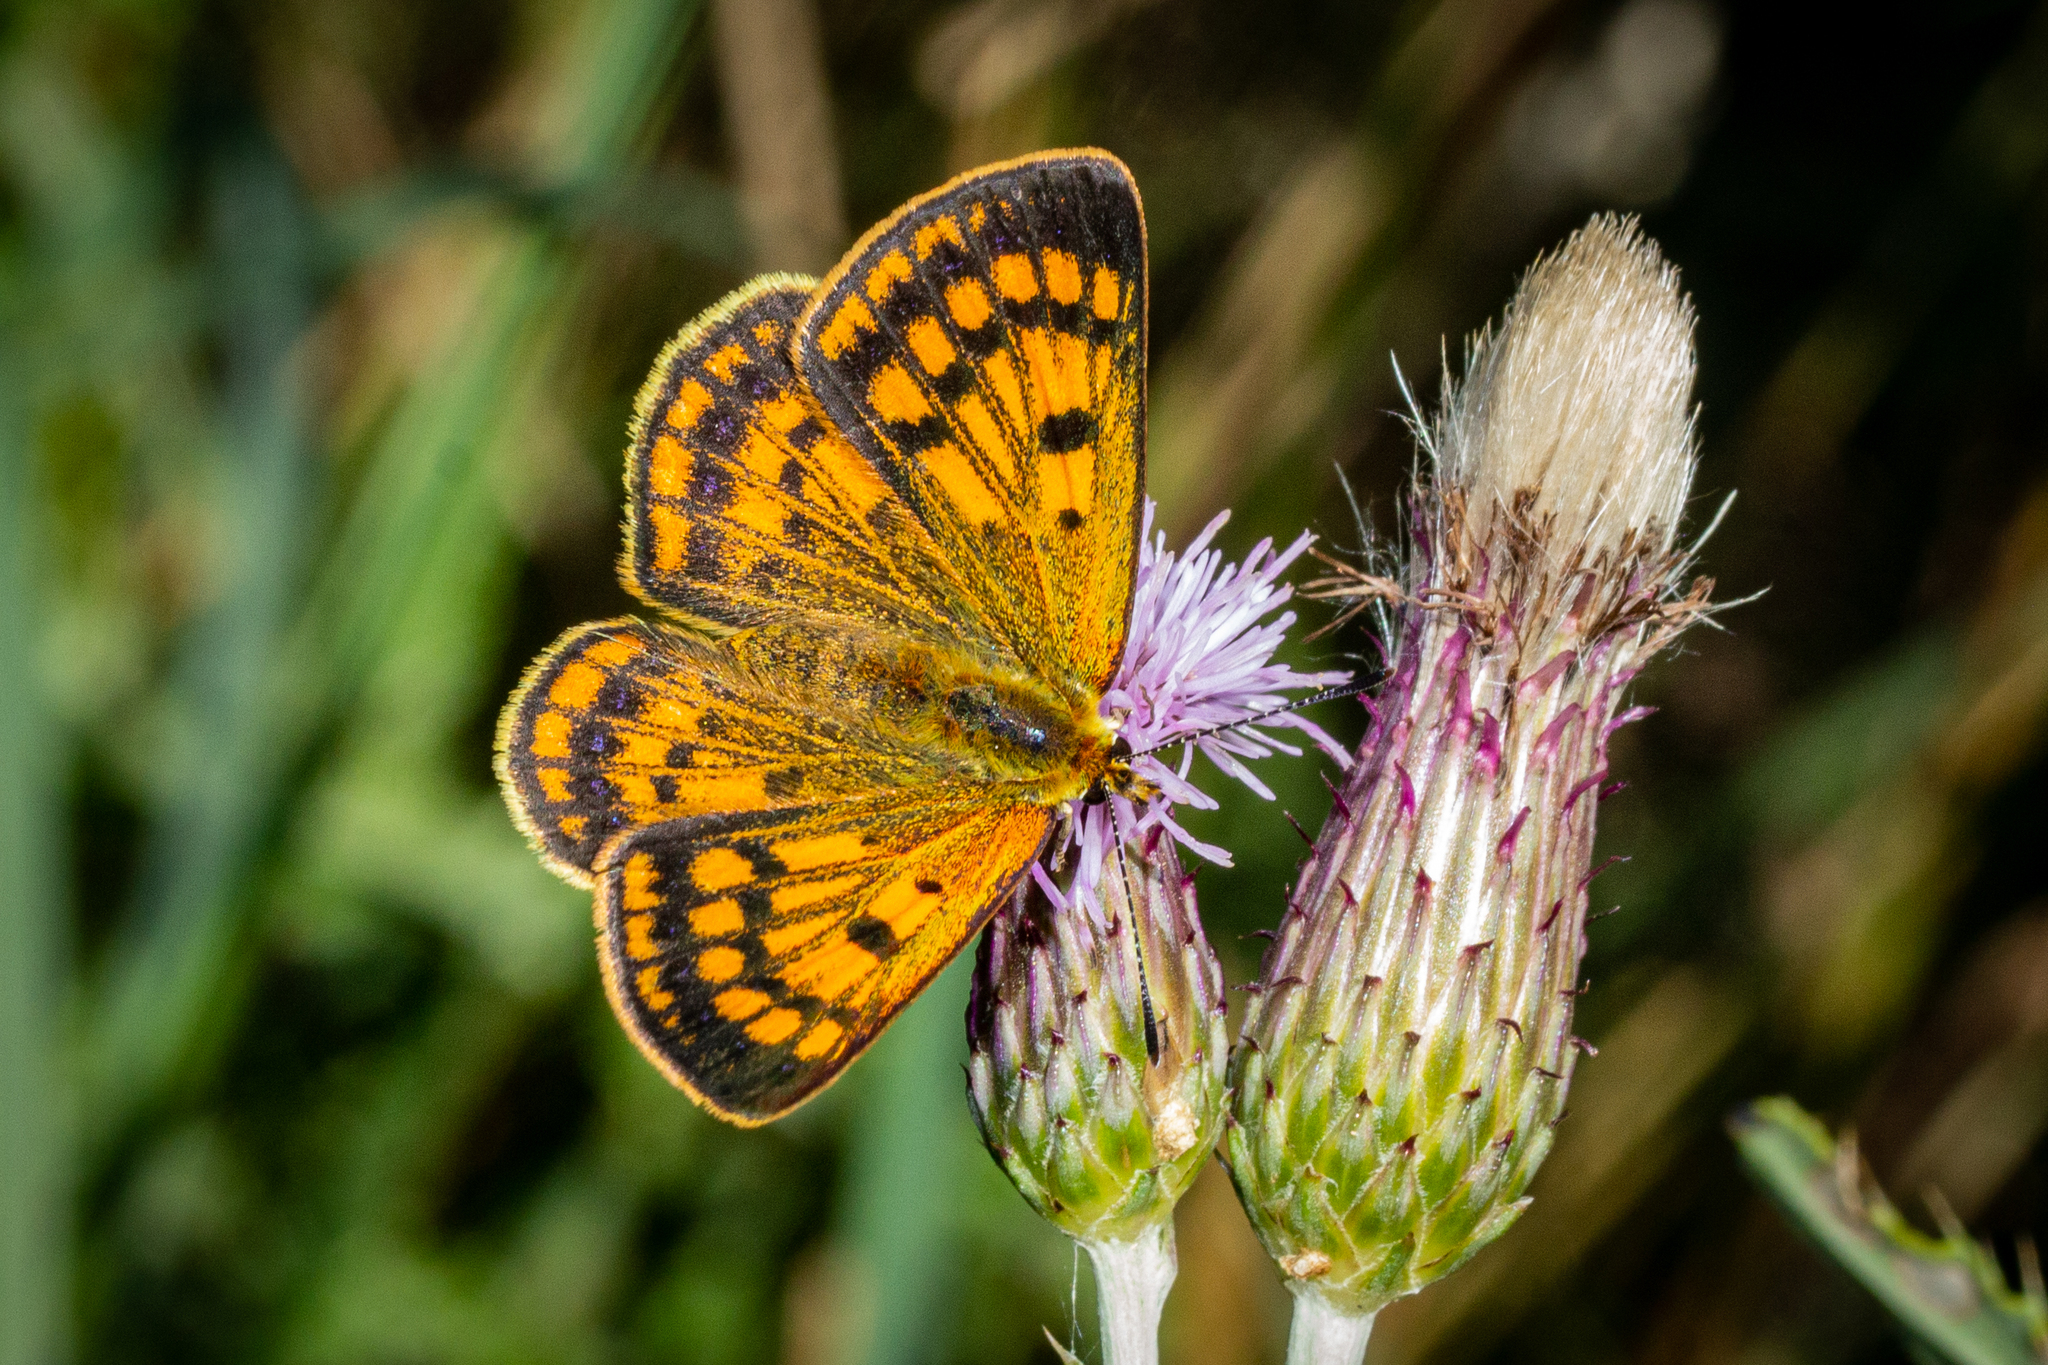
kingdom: Animalia
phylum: Arthropoda
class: Insecta
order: Lepidoptera
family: Lycaenidae
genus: Lycaena
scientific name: Lycaena
